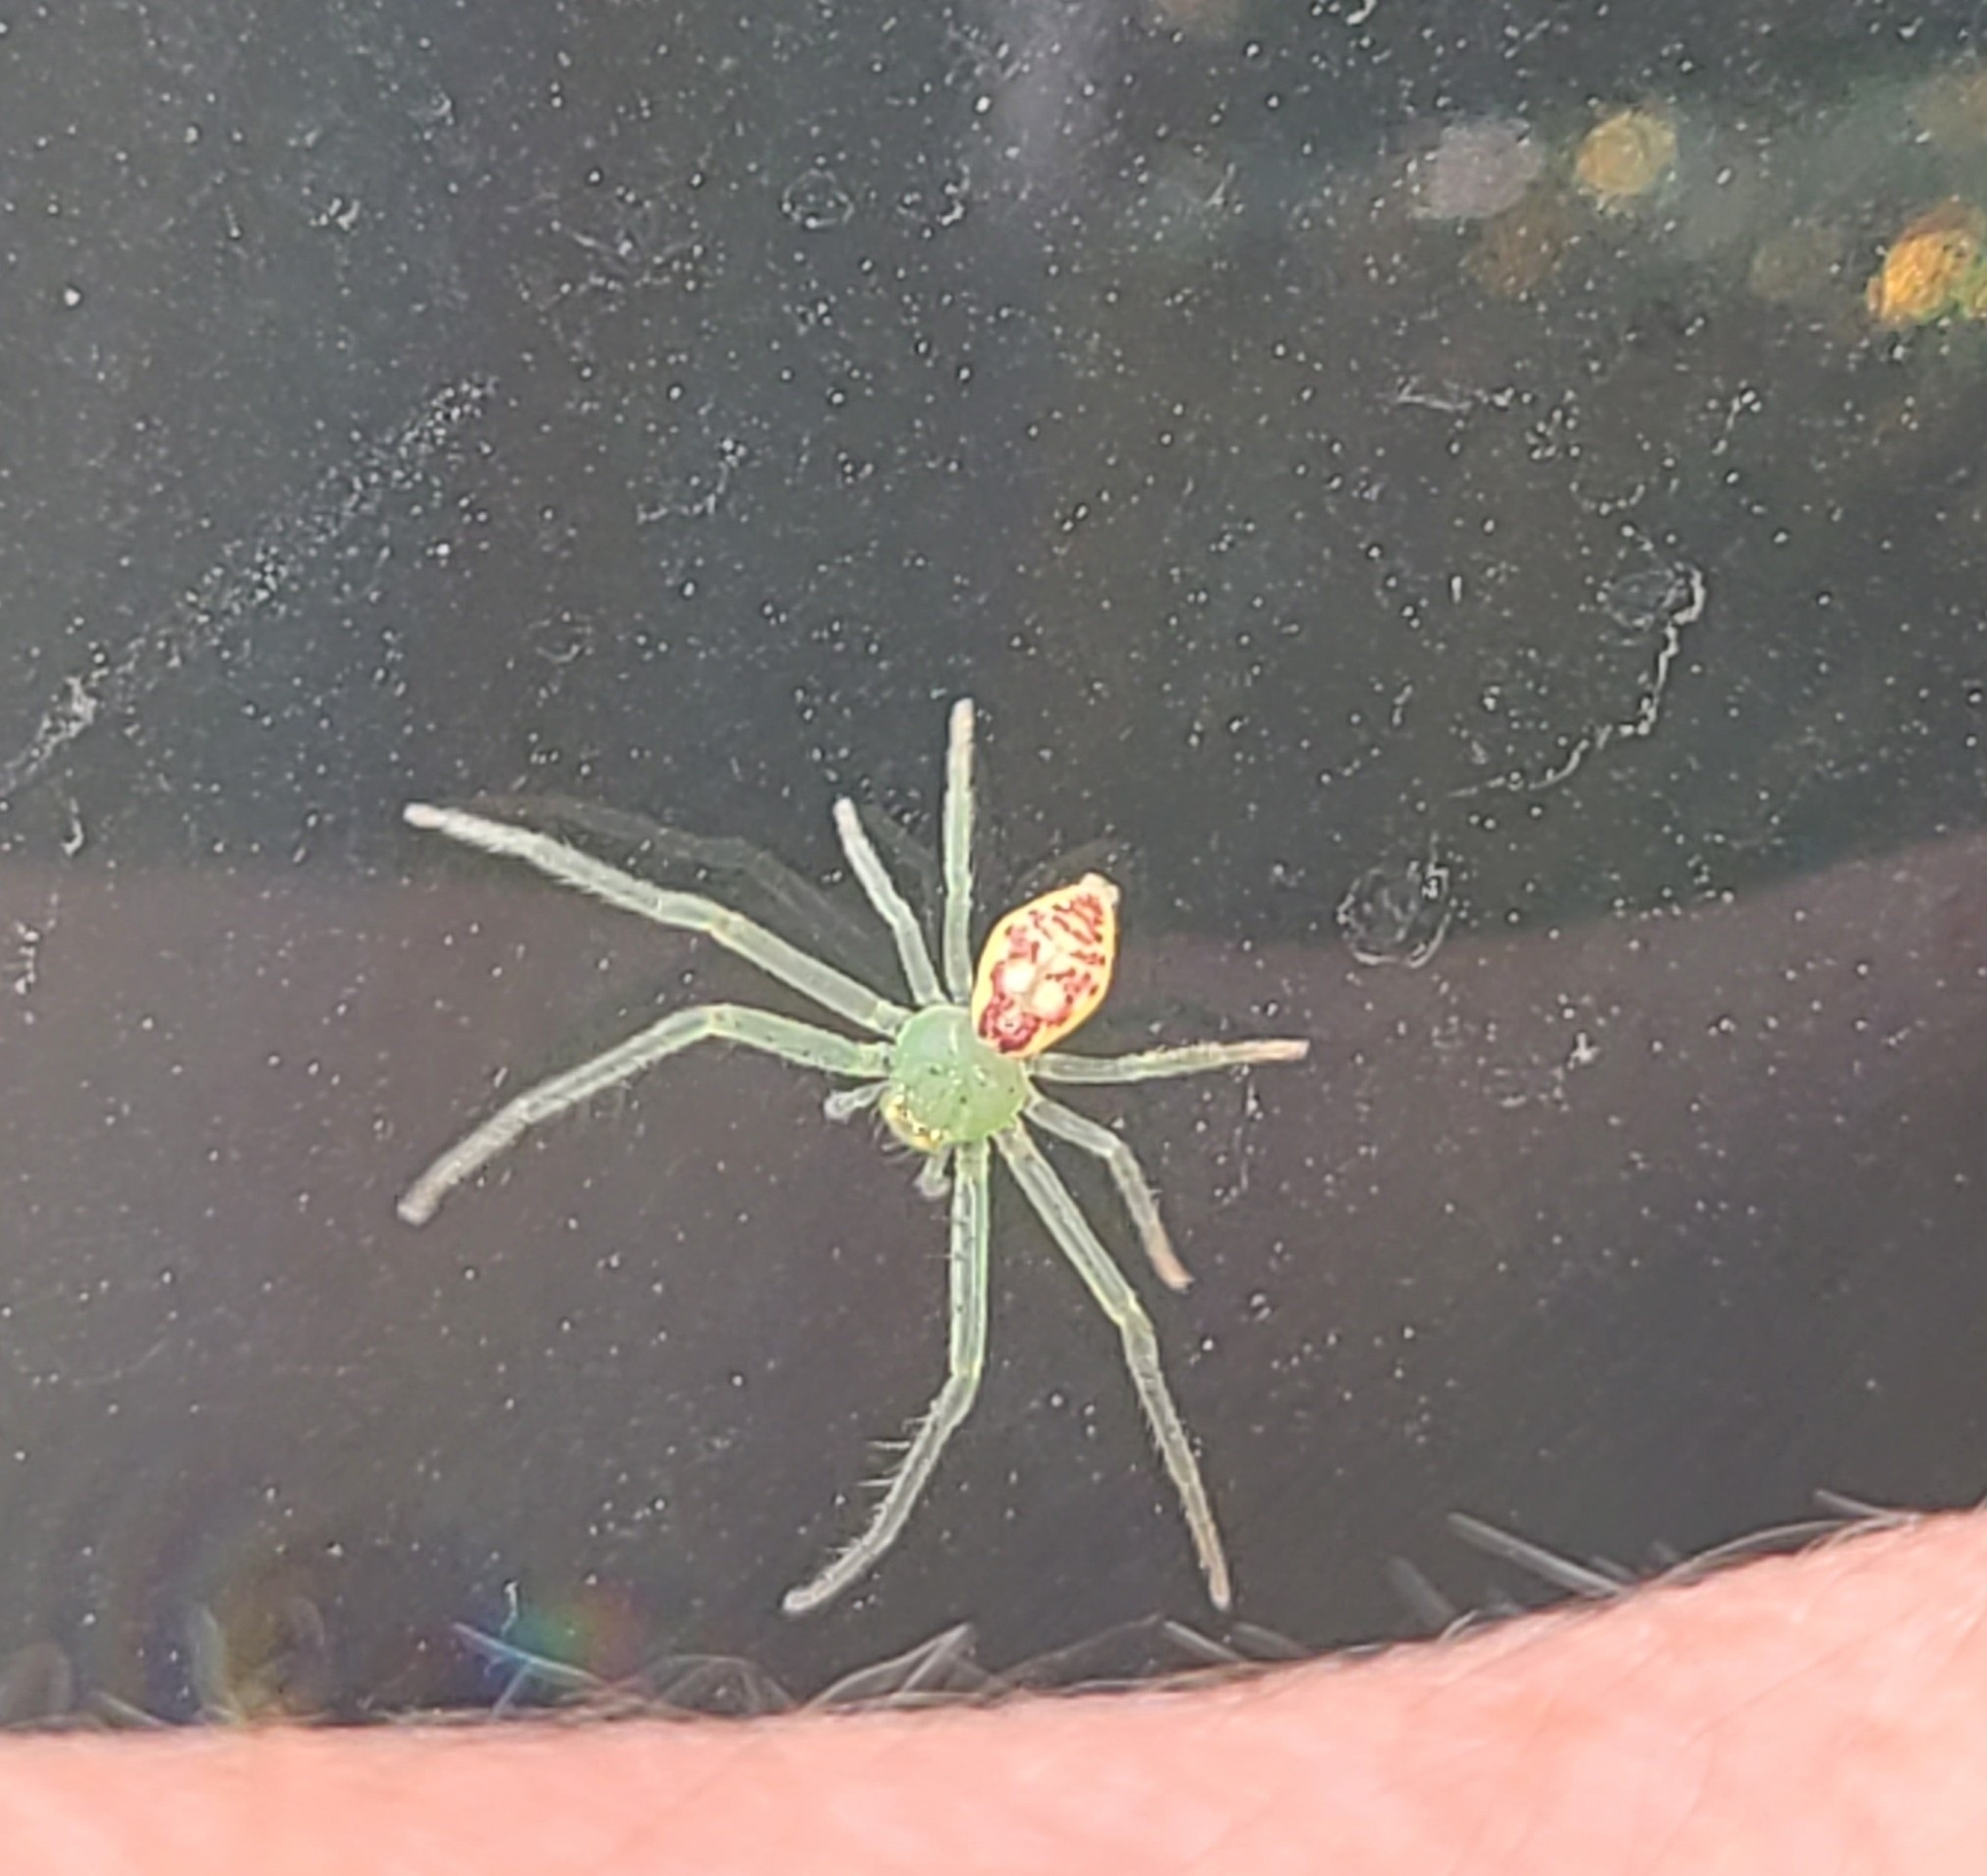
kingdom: Animalia
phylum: Arthropoda
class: Arachnida
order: Araneae
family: Thomisidae
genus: Diaea
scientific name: Diaea livens
